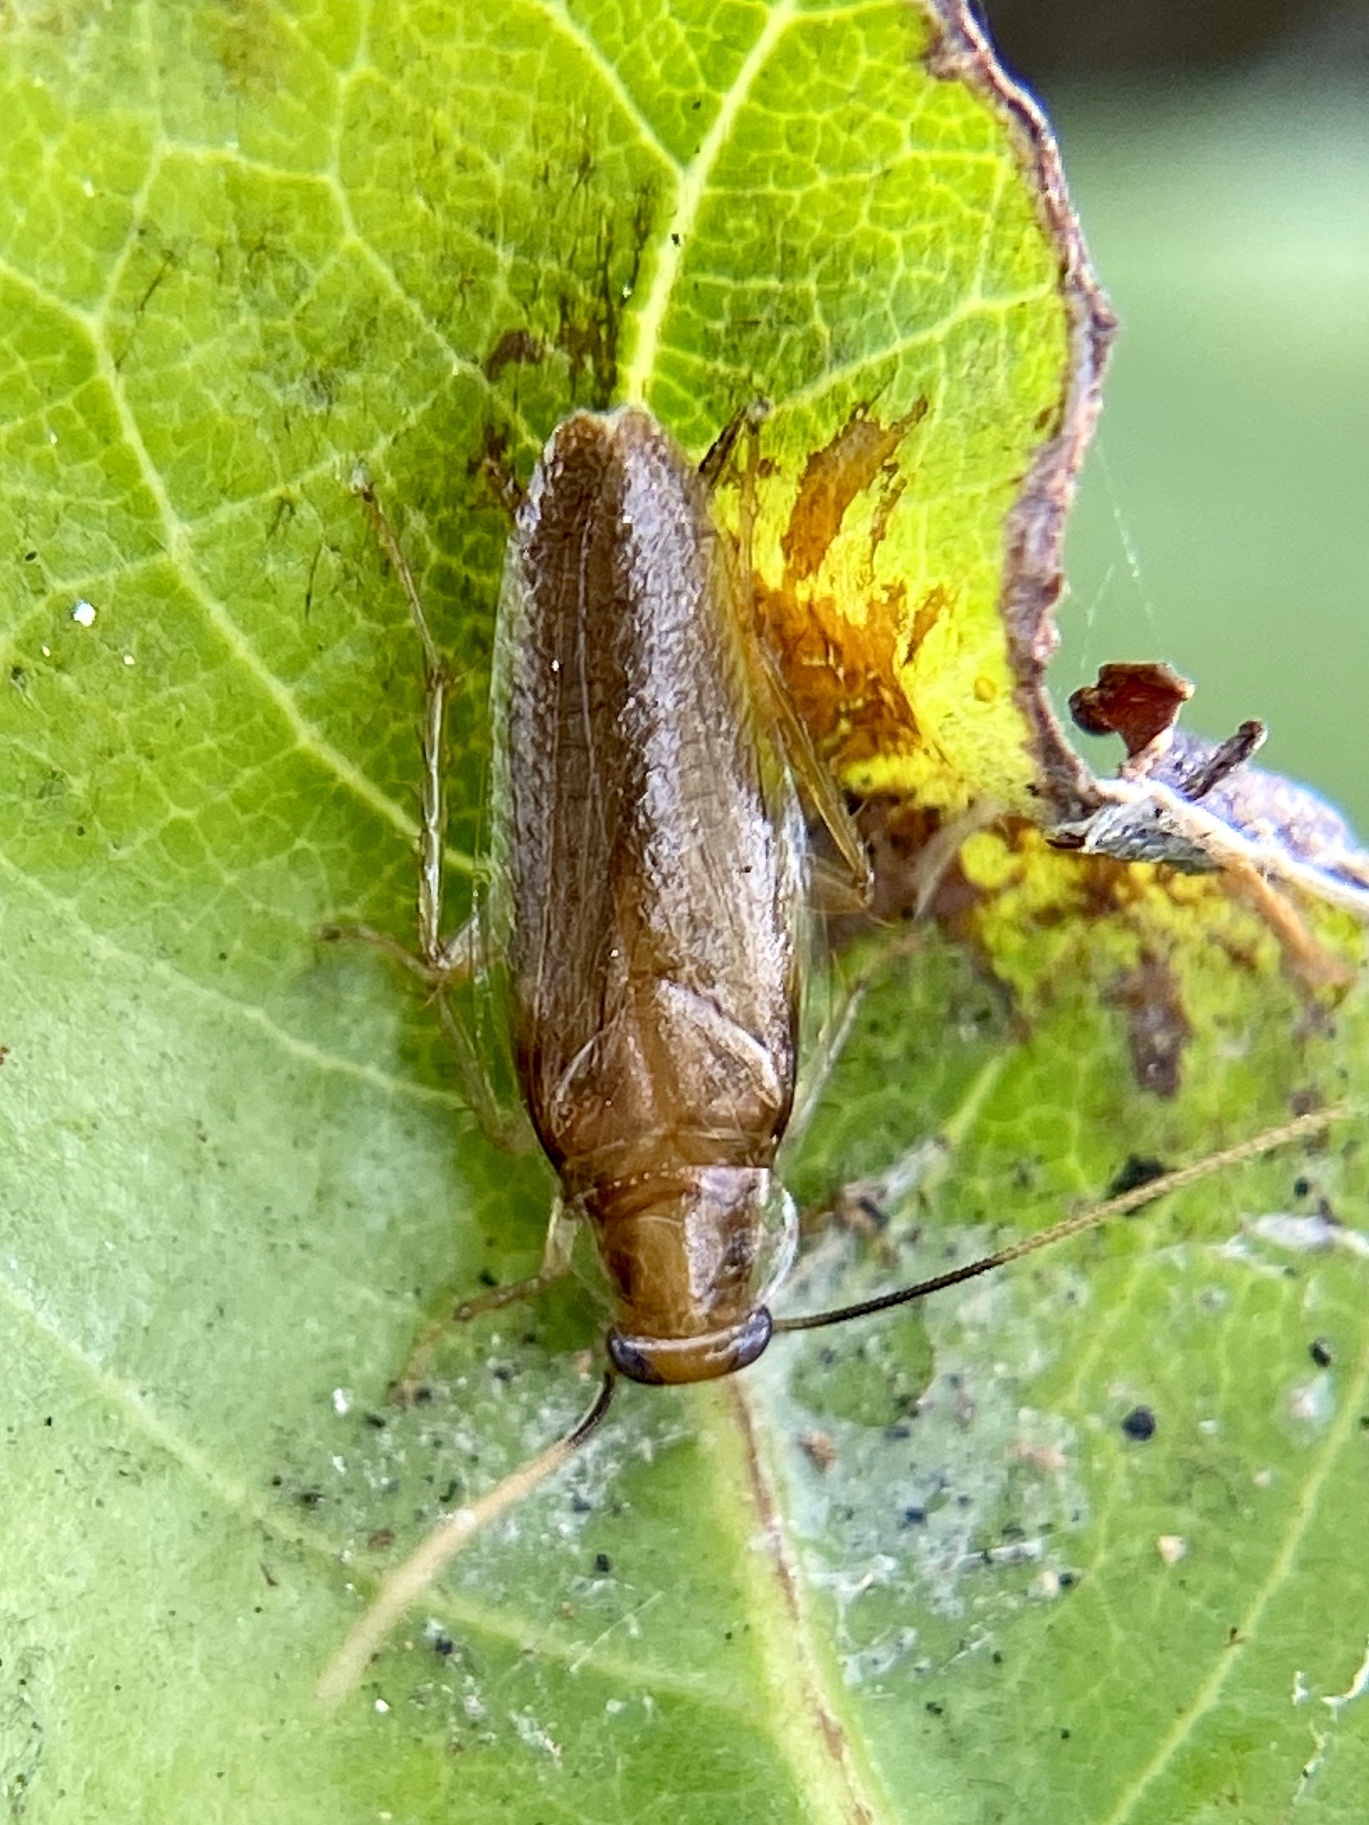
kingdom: Animalia
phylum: Arthropoda
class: Insecta
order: Blattodea
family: Ectobiidae
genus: Chorisoneura
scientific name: Chorisoneura parishi
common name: Cockroach
